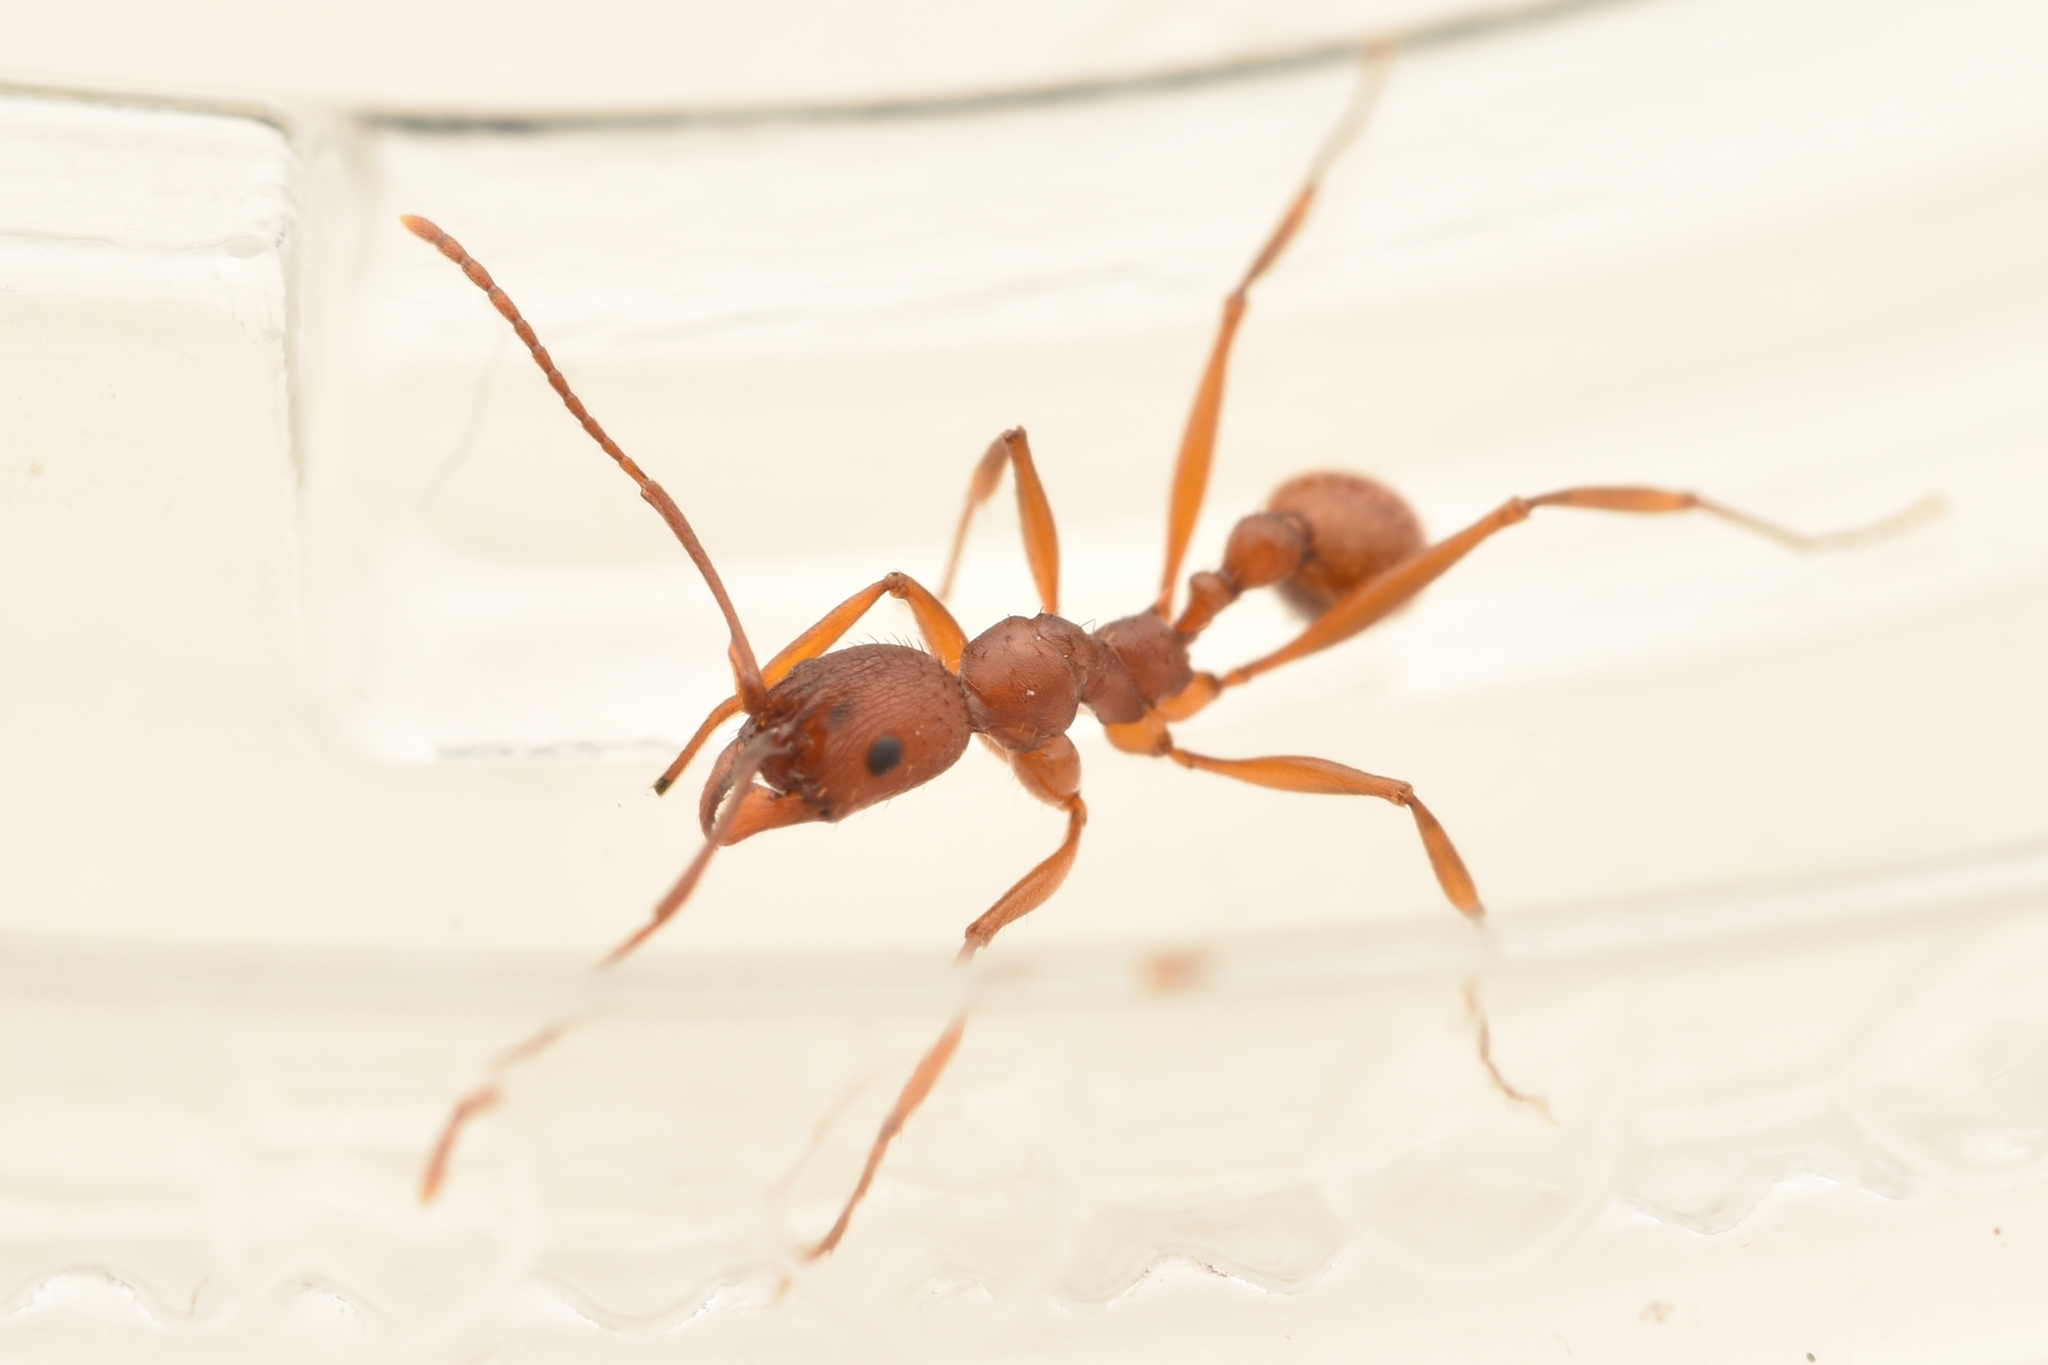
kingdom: Animalia
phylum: Arthropoda
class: Insecta
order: Hymenoptera
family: Formicidae
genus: Aphaenogaster
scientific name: Aphaenogaster treatae
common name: Treat's collared ant
